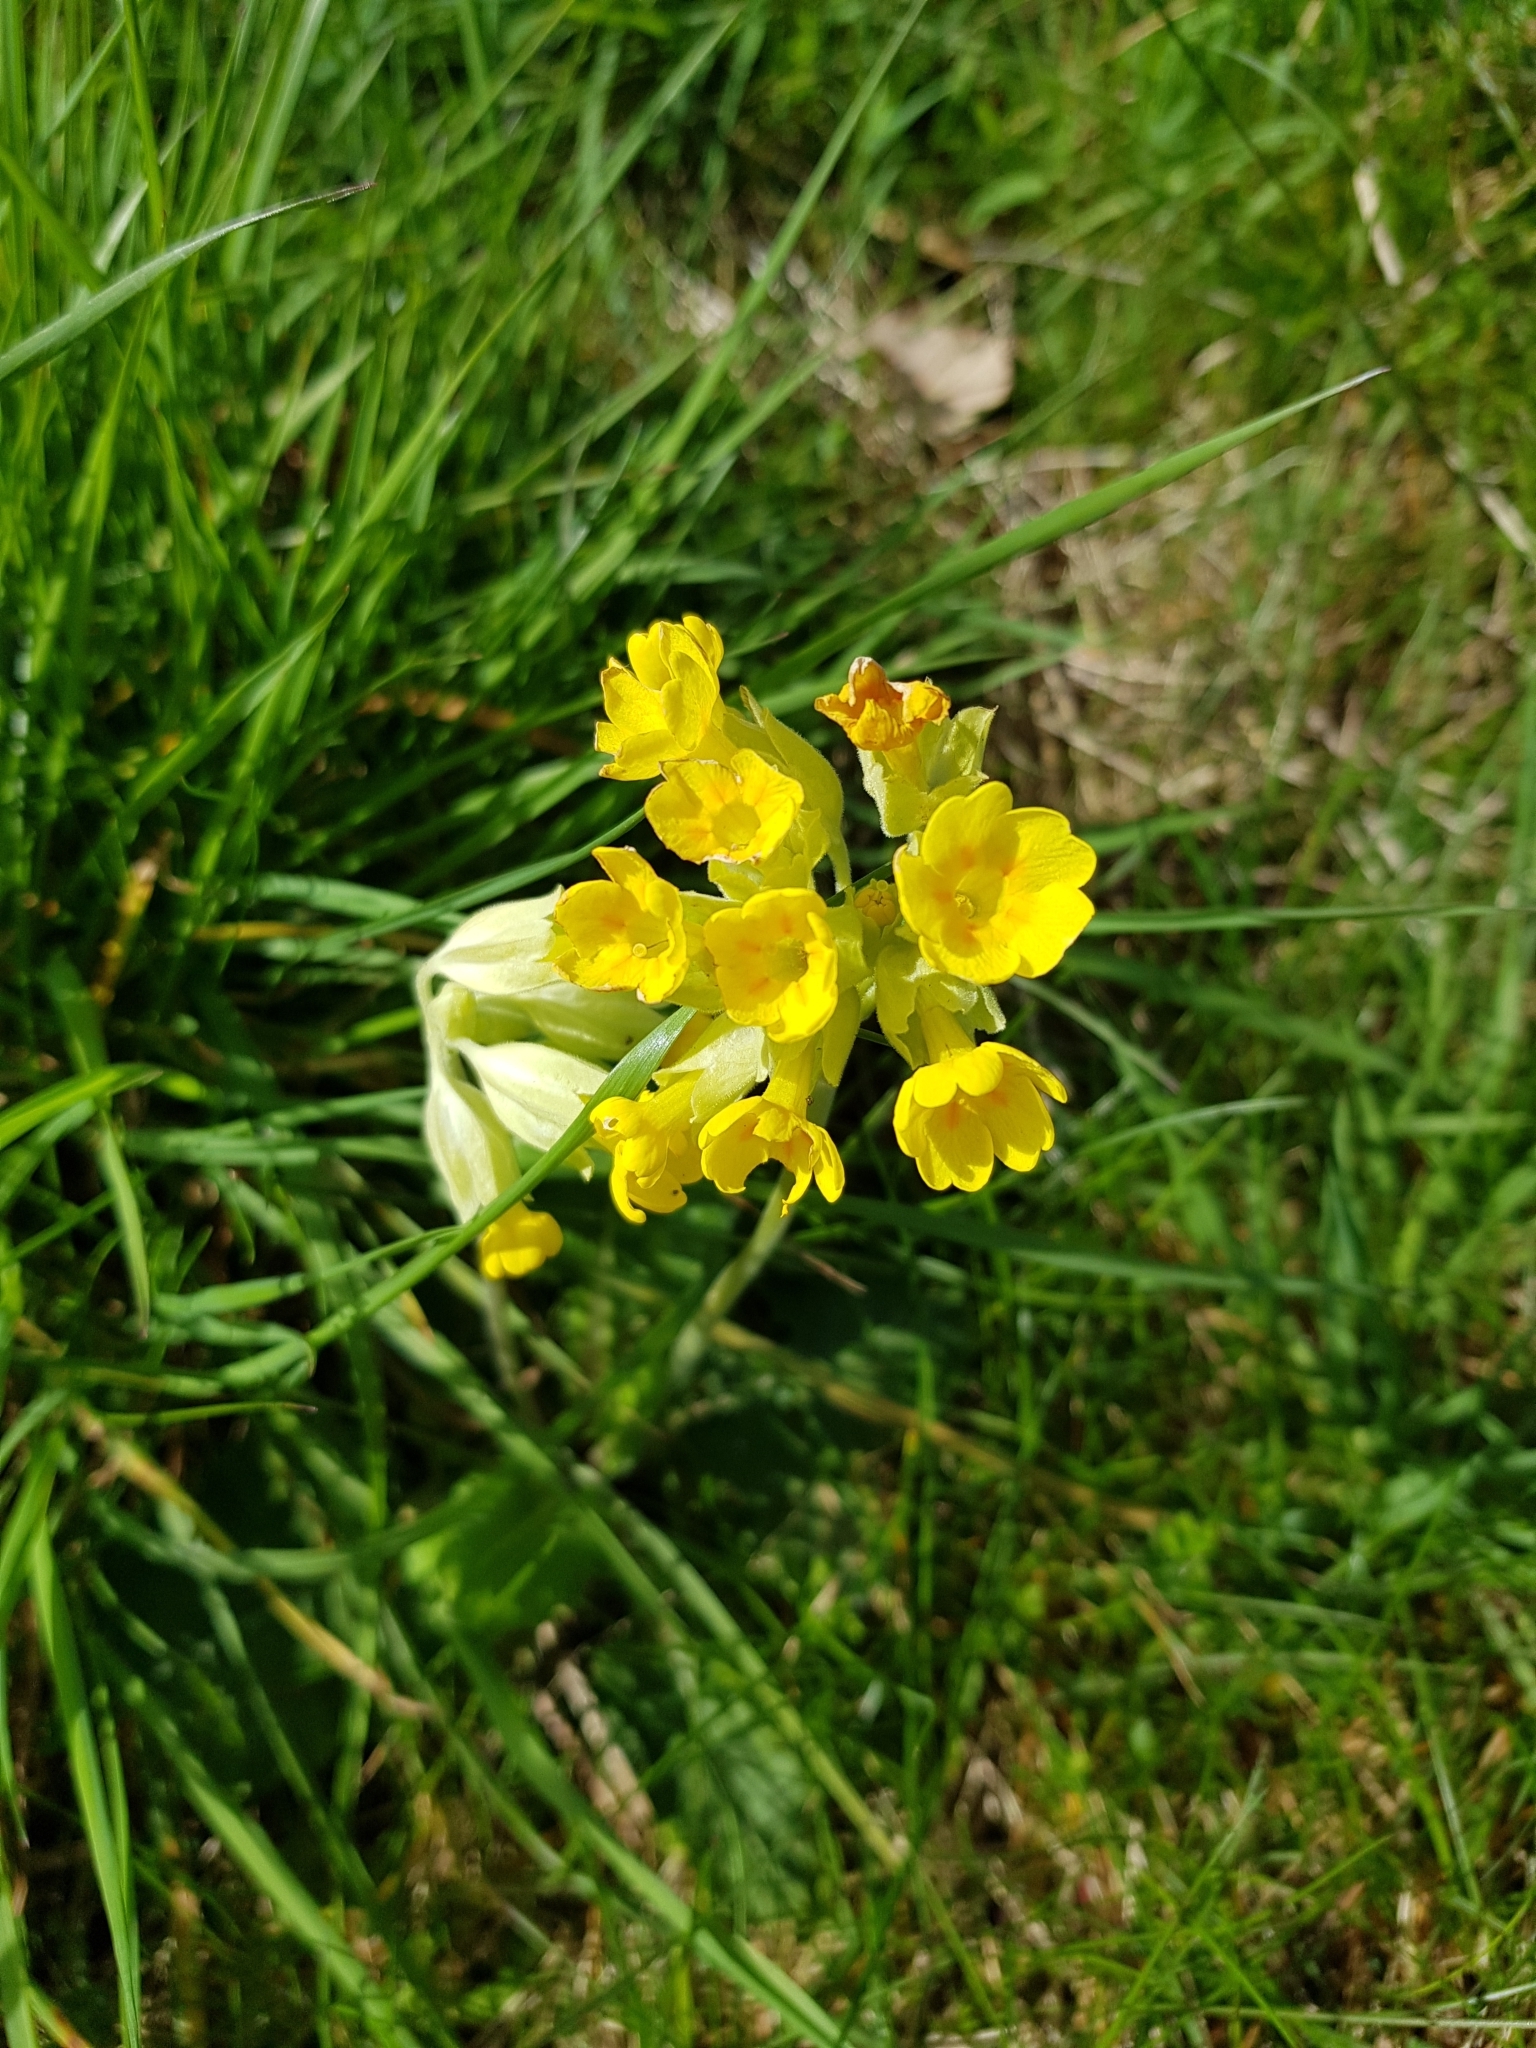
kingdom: Plantae
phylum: Tracheophyta
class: Magnoliopsida
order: Ericales
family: Primulaceae
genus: Primula
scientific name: Primula veris
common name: Cowslip
